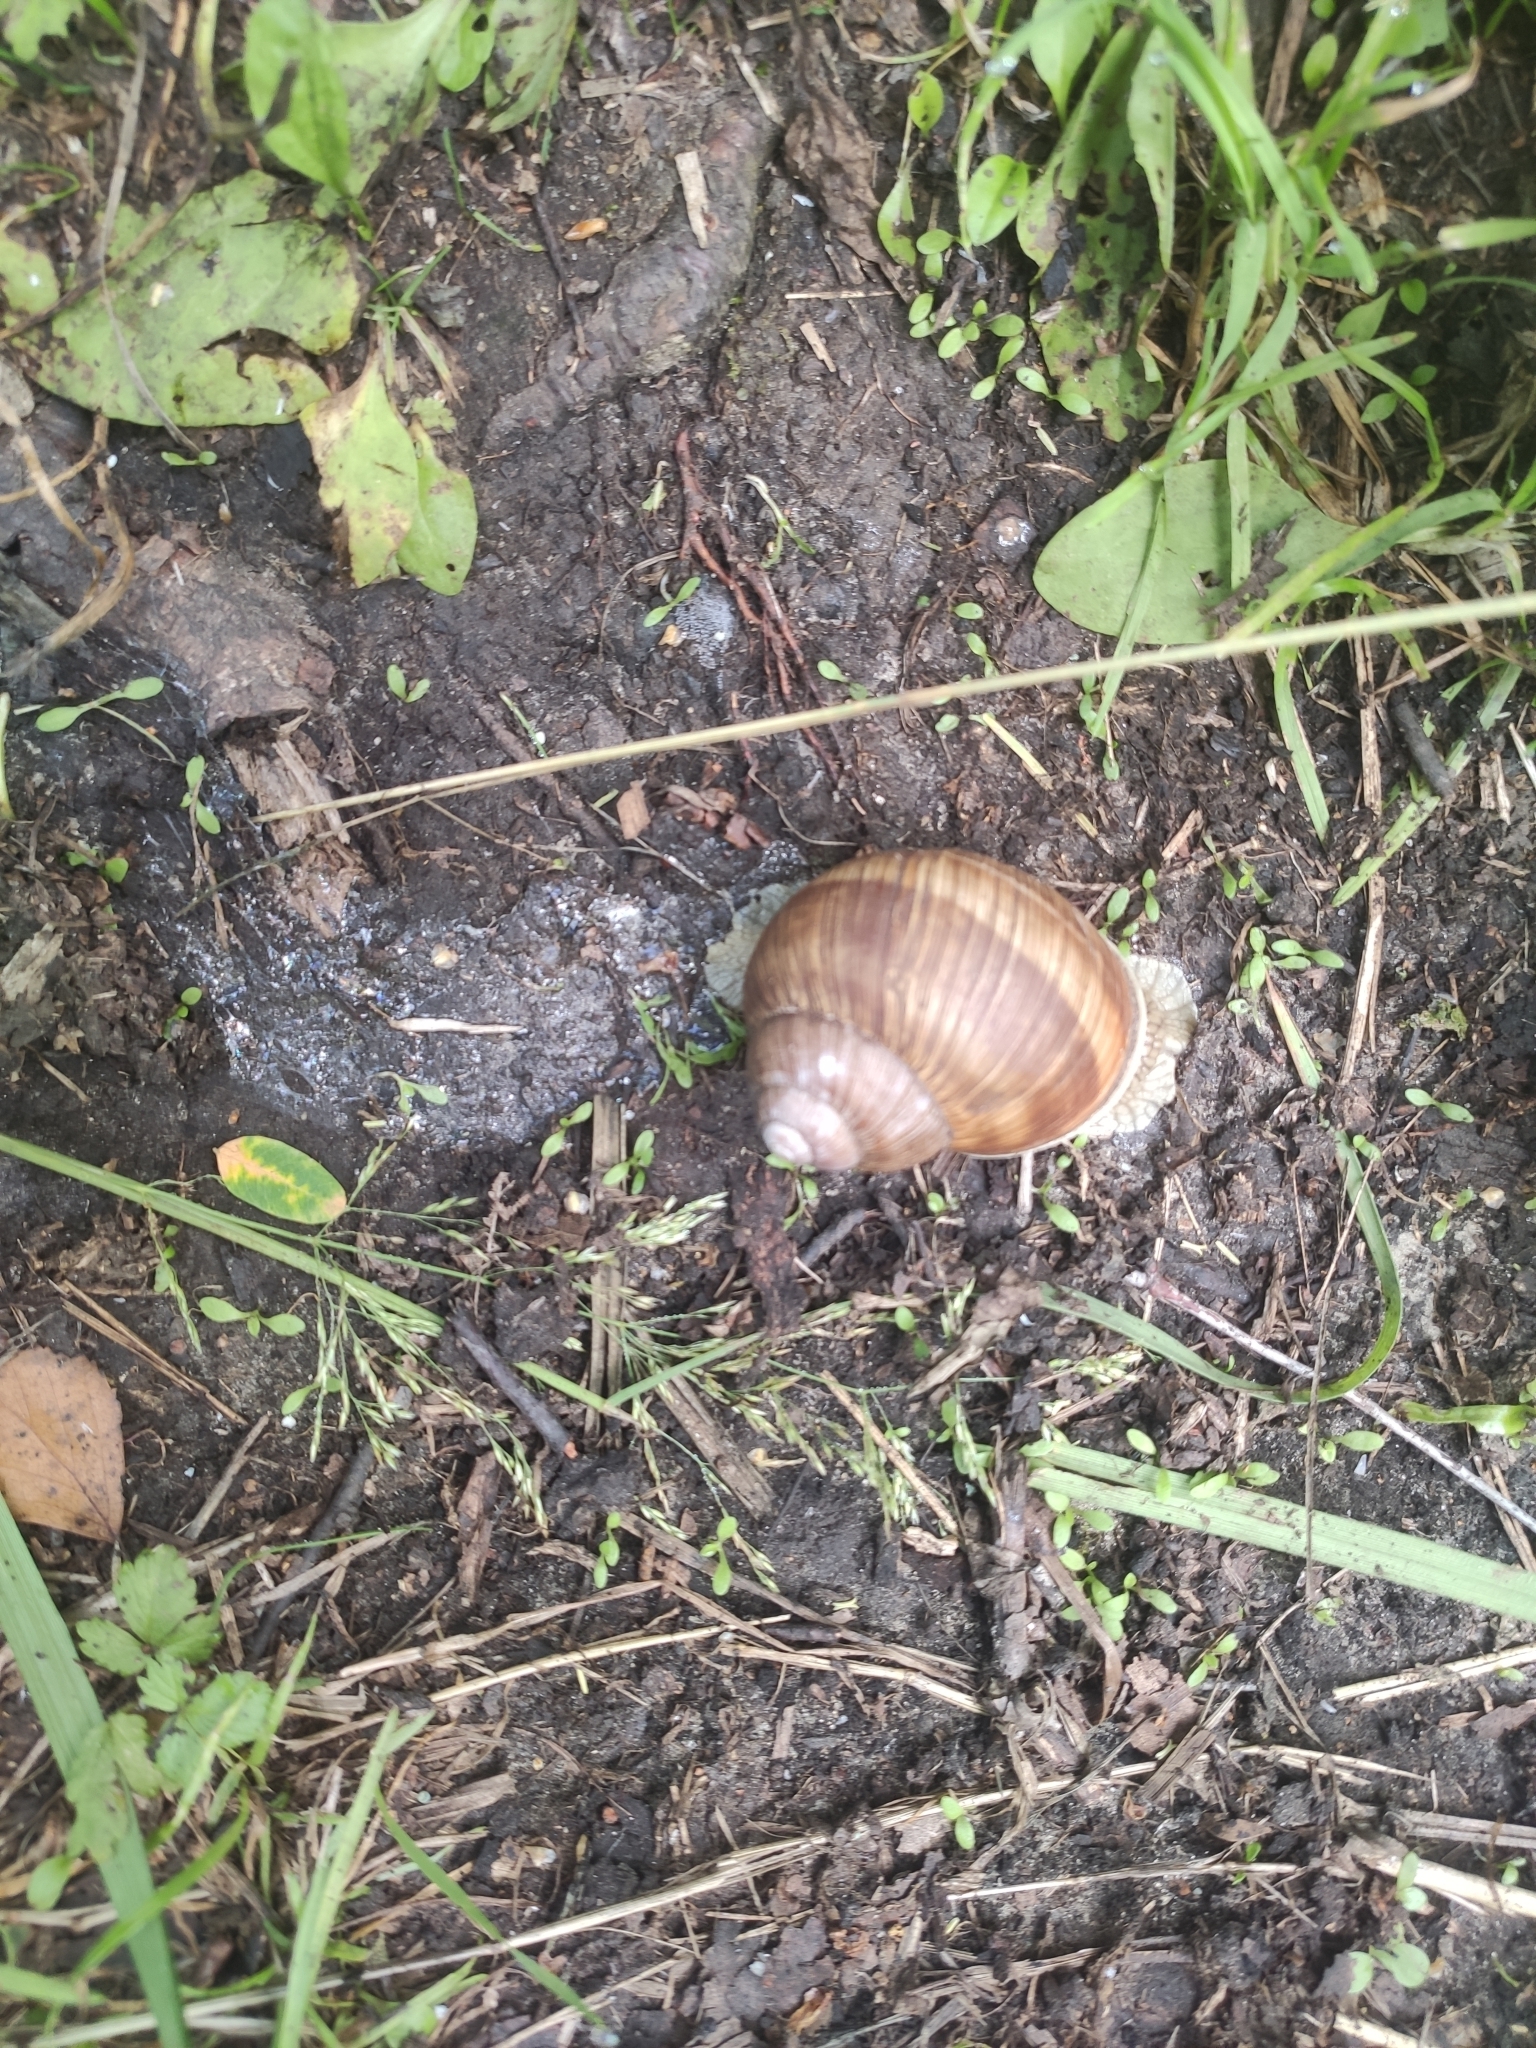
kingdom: Animalia
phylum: Mollusca
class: Gastropoda
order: Stylommatophora
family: Helicidae
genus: Helix
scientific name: Helix pomatia
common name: Roman snail
